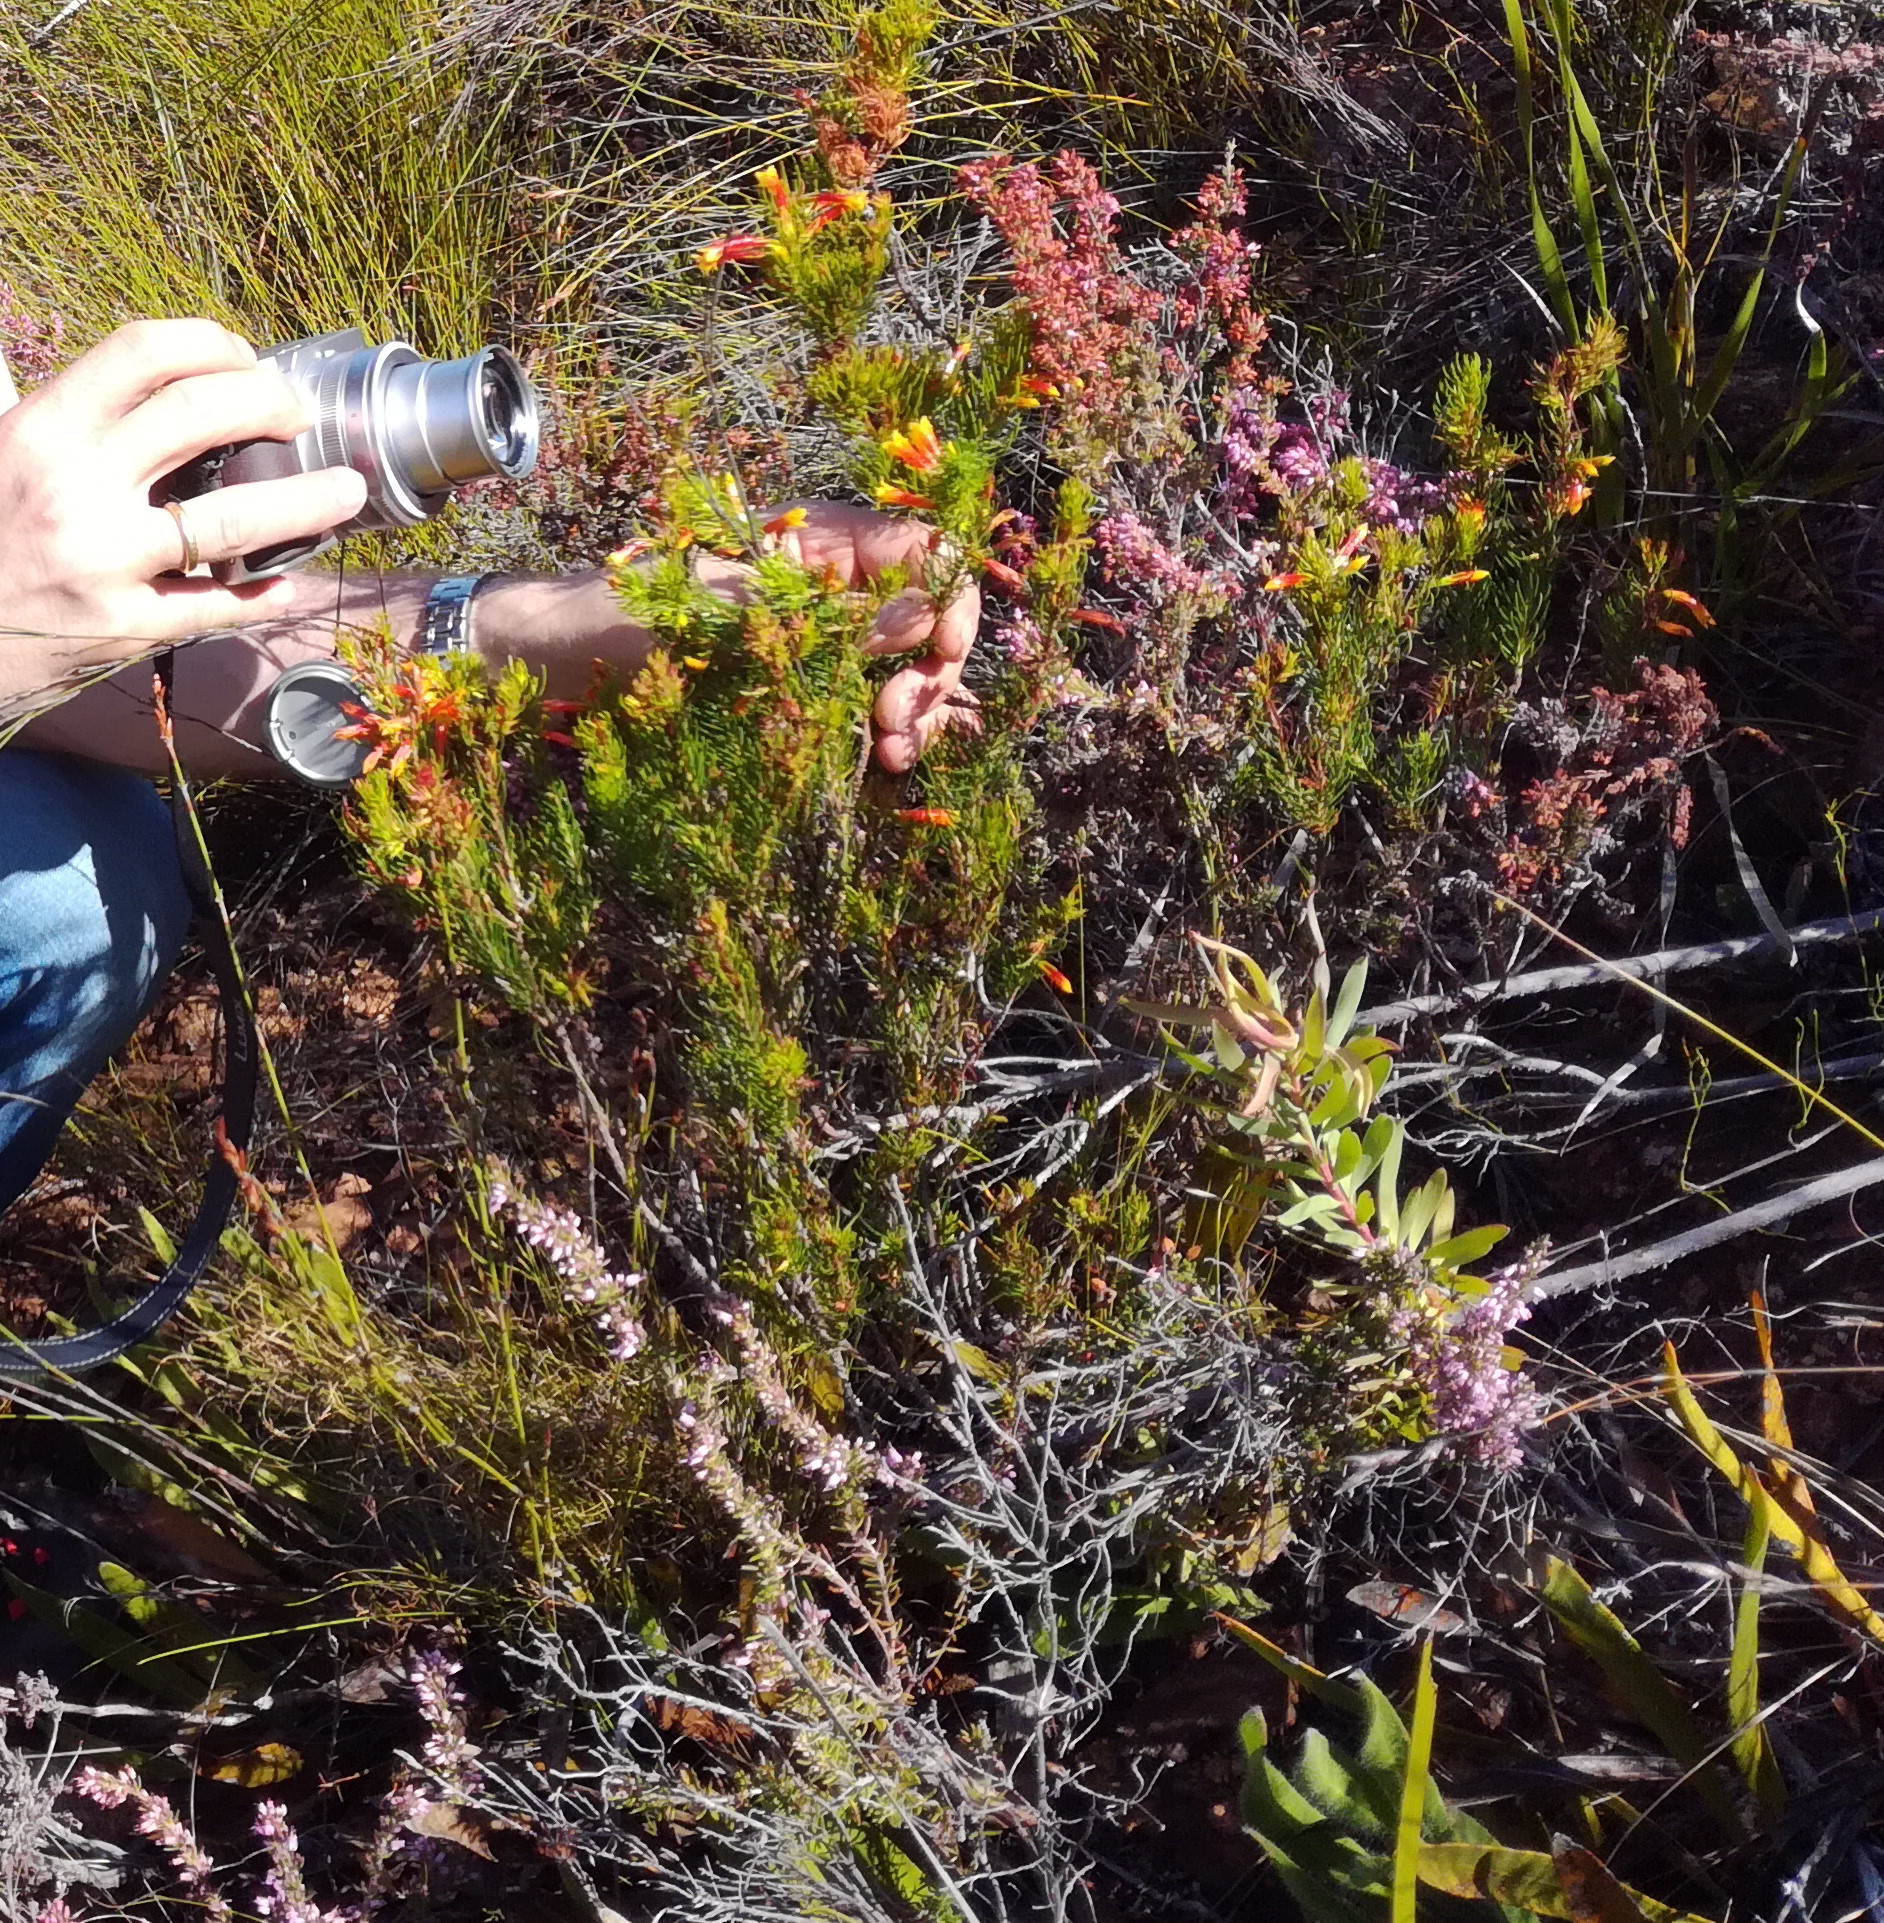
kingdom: Plantae
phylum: Tracheophyta
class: Magnoliopsida
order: Ericales
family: Ericaceae
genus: Erica
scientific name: Erica grandiflora
